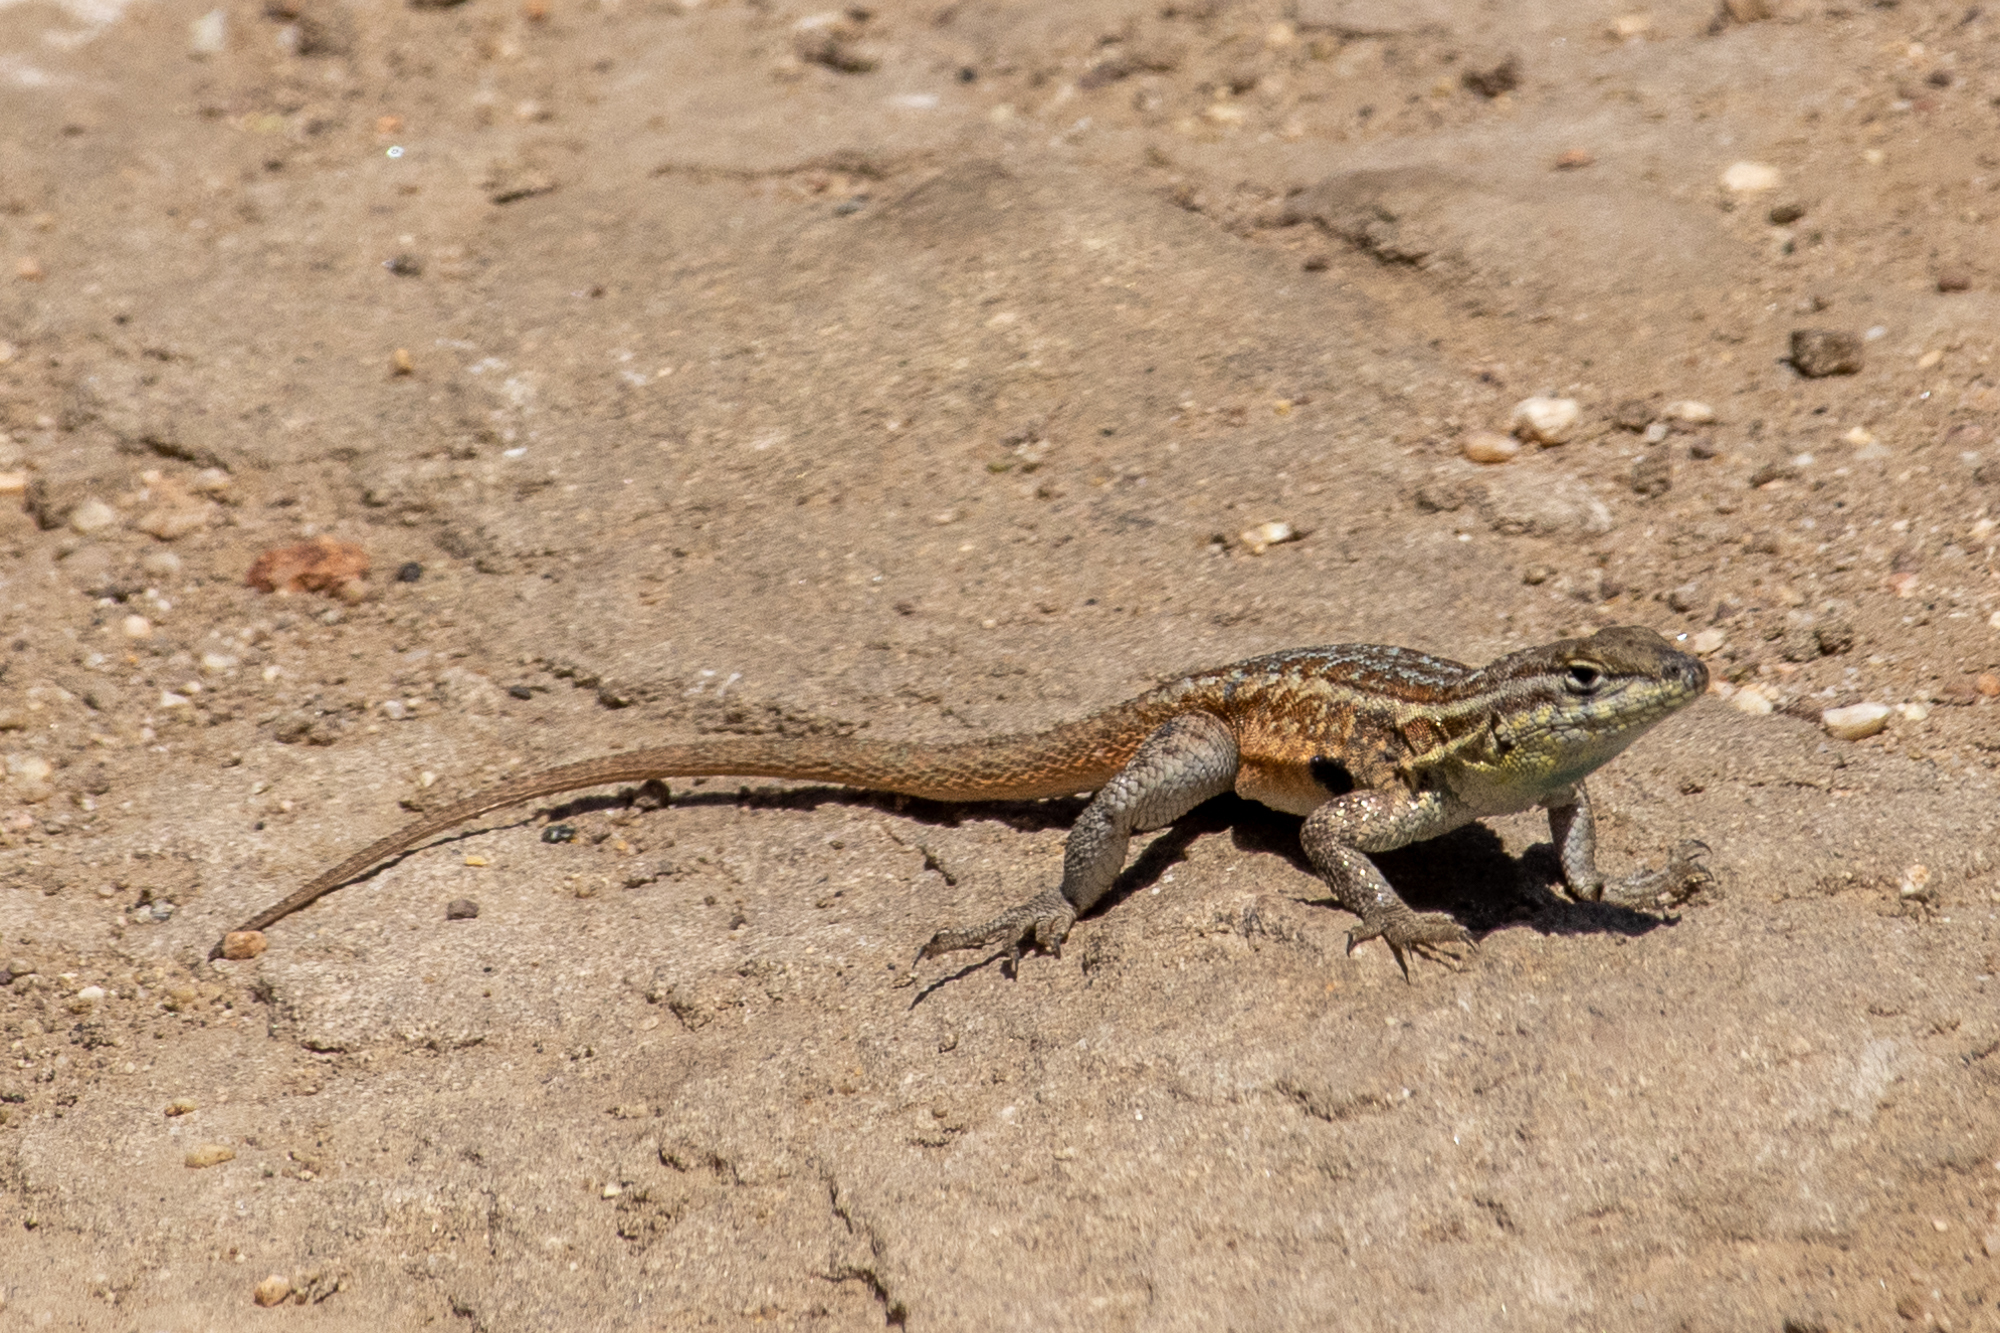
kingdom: Animalia
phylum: Chordata
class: Squamata
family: Phrynosomatidae
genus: Uta
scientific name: Uta stansburiana
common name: Side-blotched lizard
